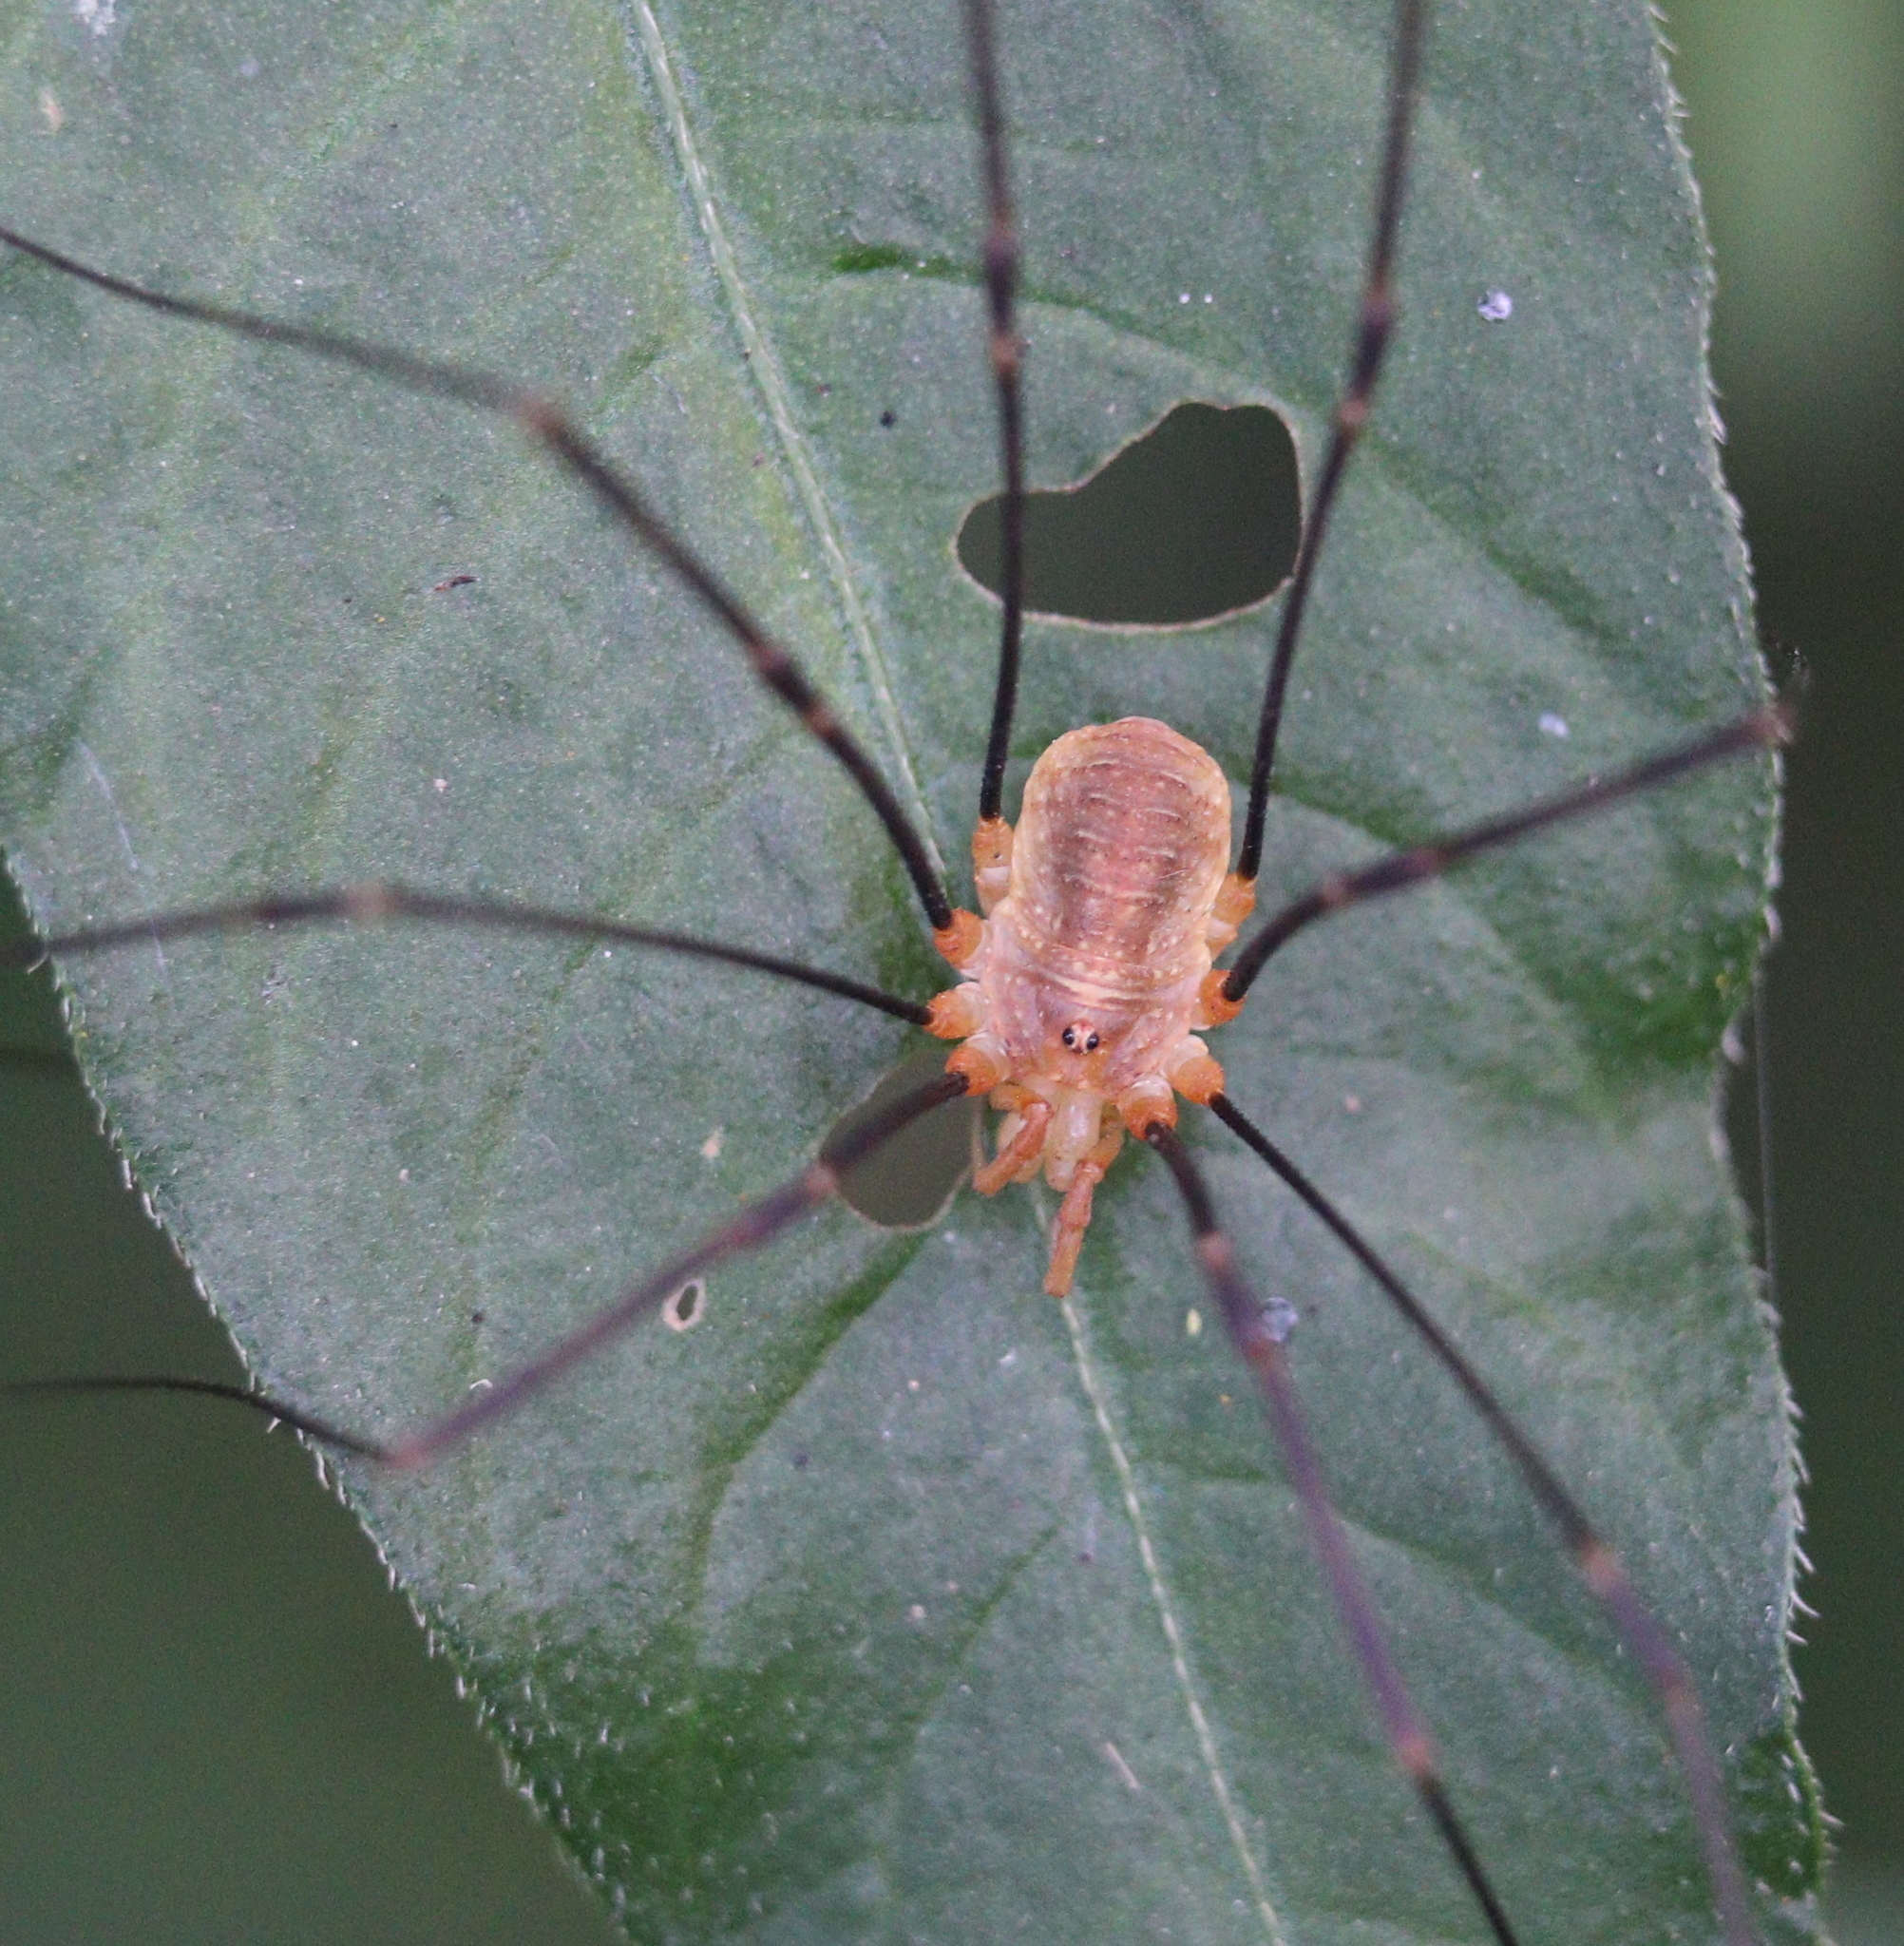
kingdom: Animalia
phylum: Arthropoda
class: Arachnida
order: Opiliones
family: Phalangiidae
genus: Opilio
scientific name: Opilio canestrinii
